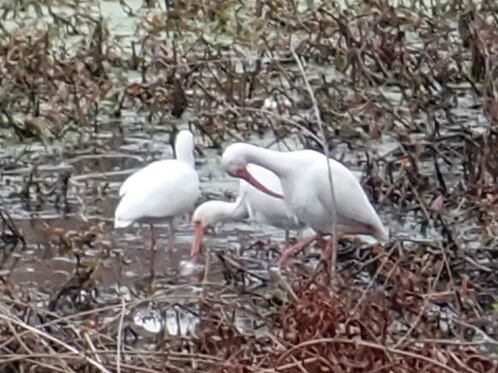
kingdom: Animalia
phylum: Chordata
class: Aves
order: Pelecaniformes
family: Threskiornithidae
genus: Eudocimus
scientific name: Eudocimus albus
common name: White ibis
